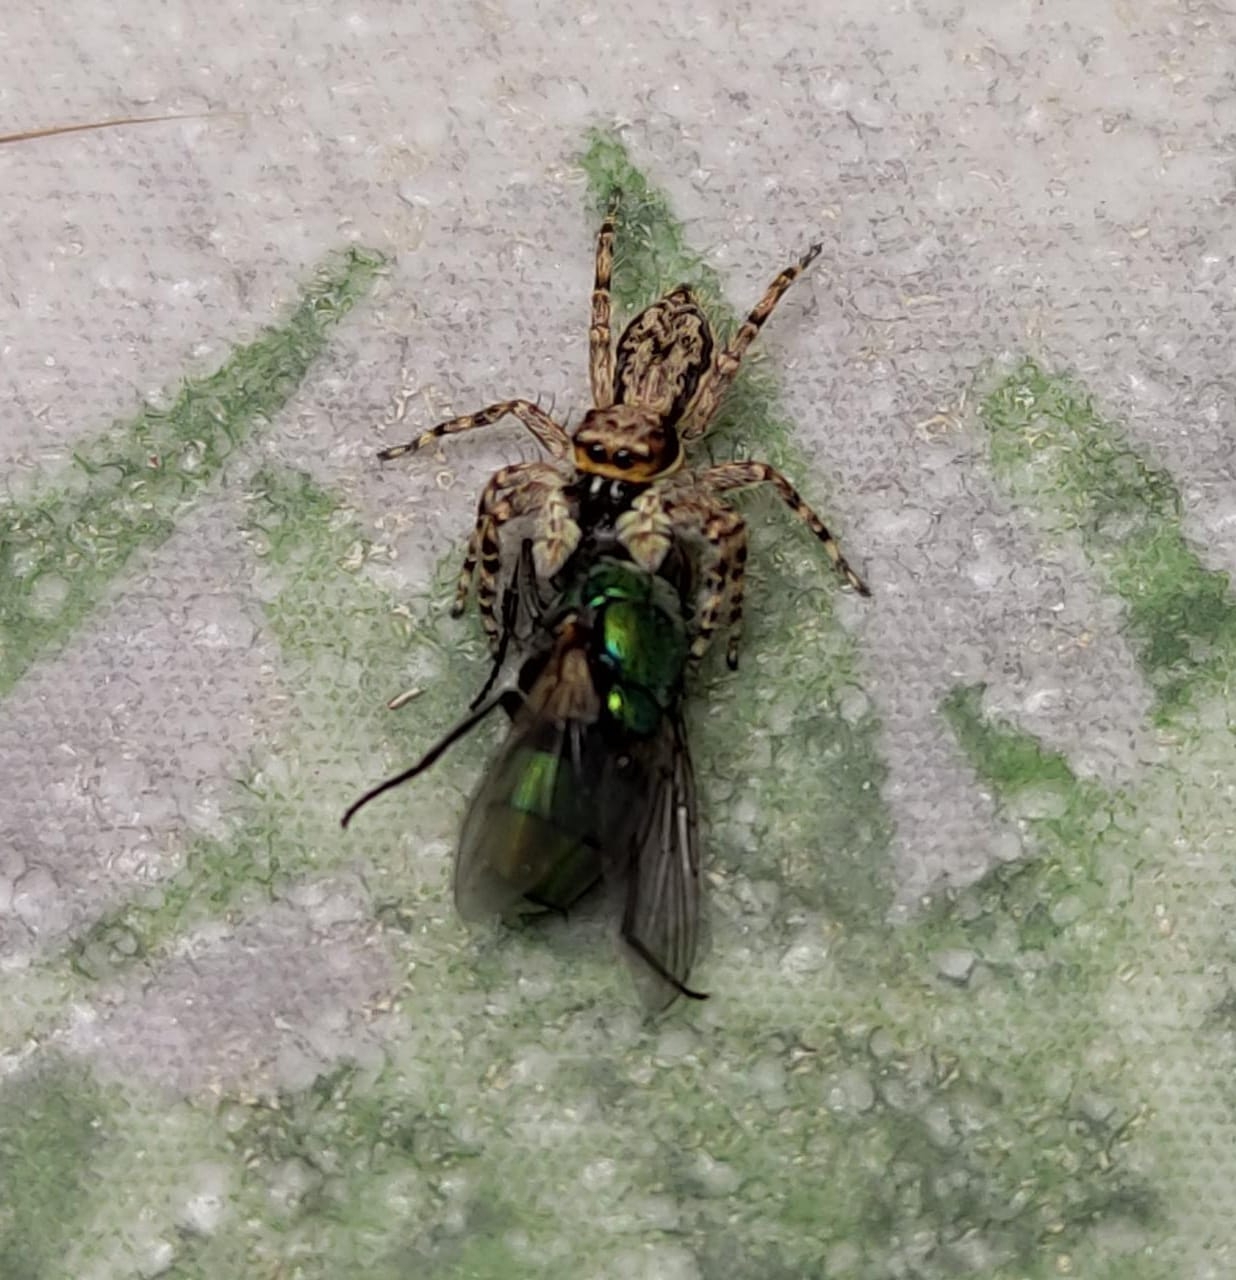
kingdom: Animalia
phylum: Arthropoda
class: Arachnida
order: Araneae
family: Salticidae
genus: Menemerus
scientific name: Menemerus bivittatus
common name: Gray wall jumper
